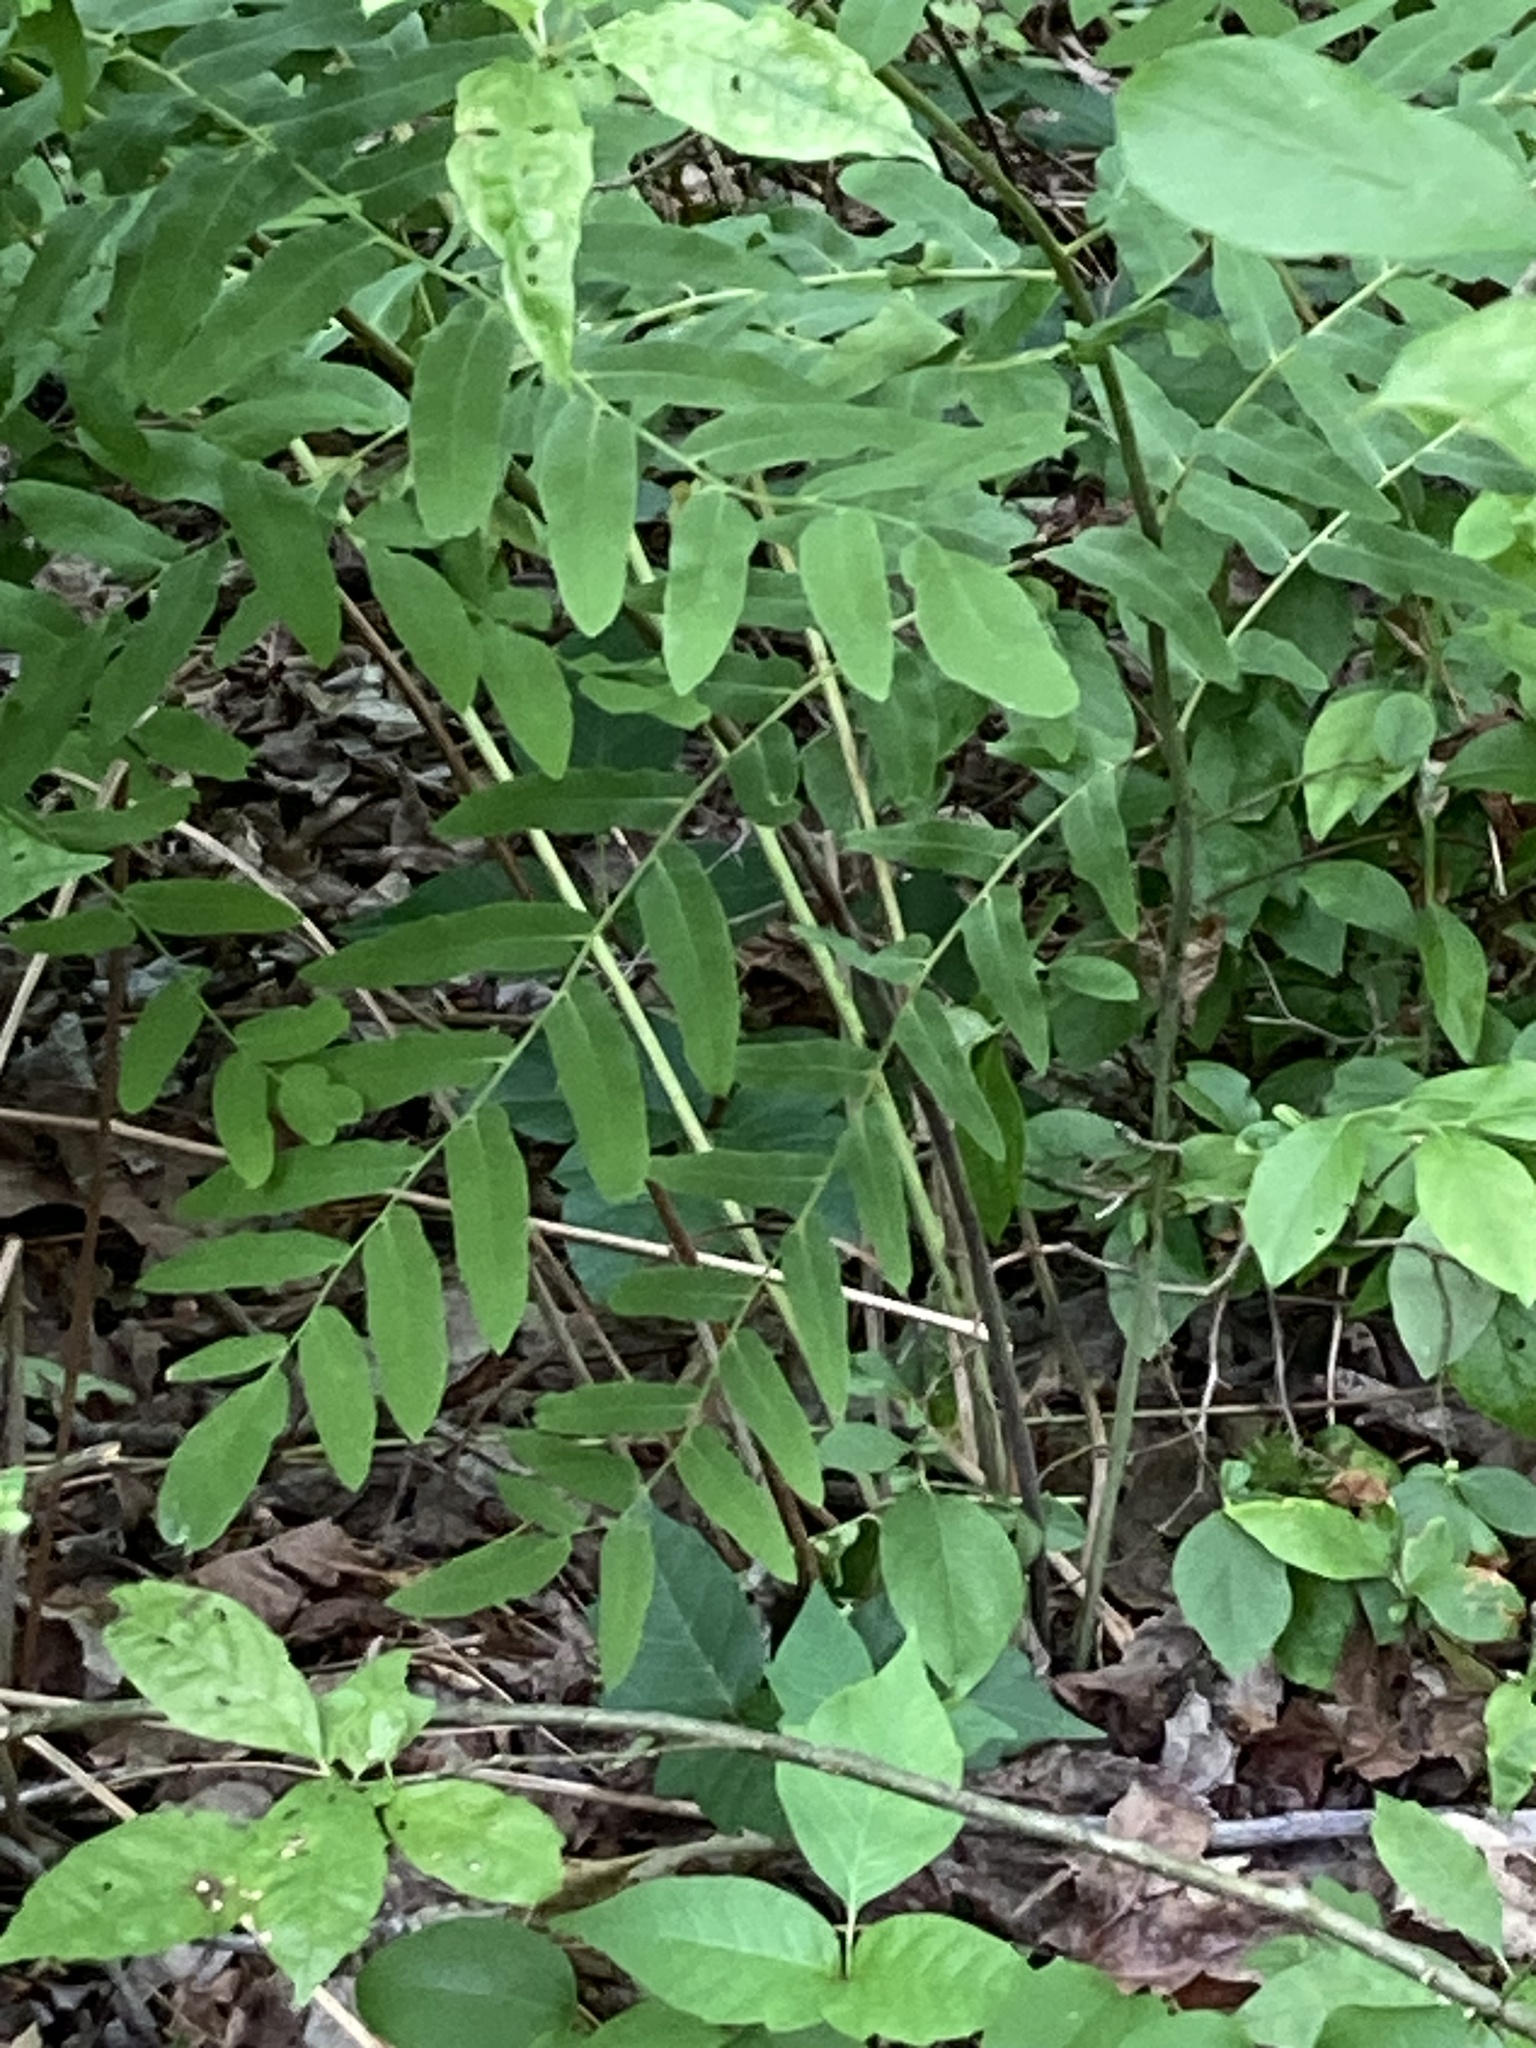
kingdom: Plantae
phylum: Tracheophyta
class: Polypodiopsida
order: Osmundales
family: Osmundaceae
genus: Osmunda
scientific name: Osmunda spectabilis
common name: American royal fern
